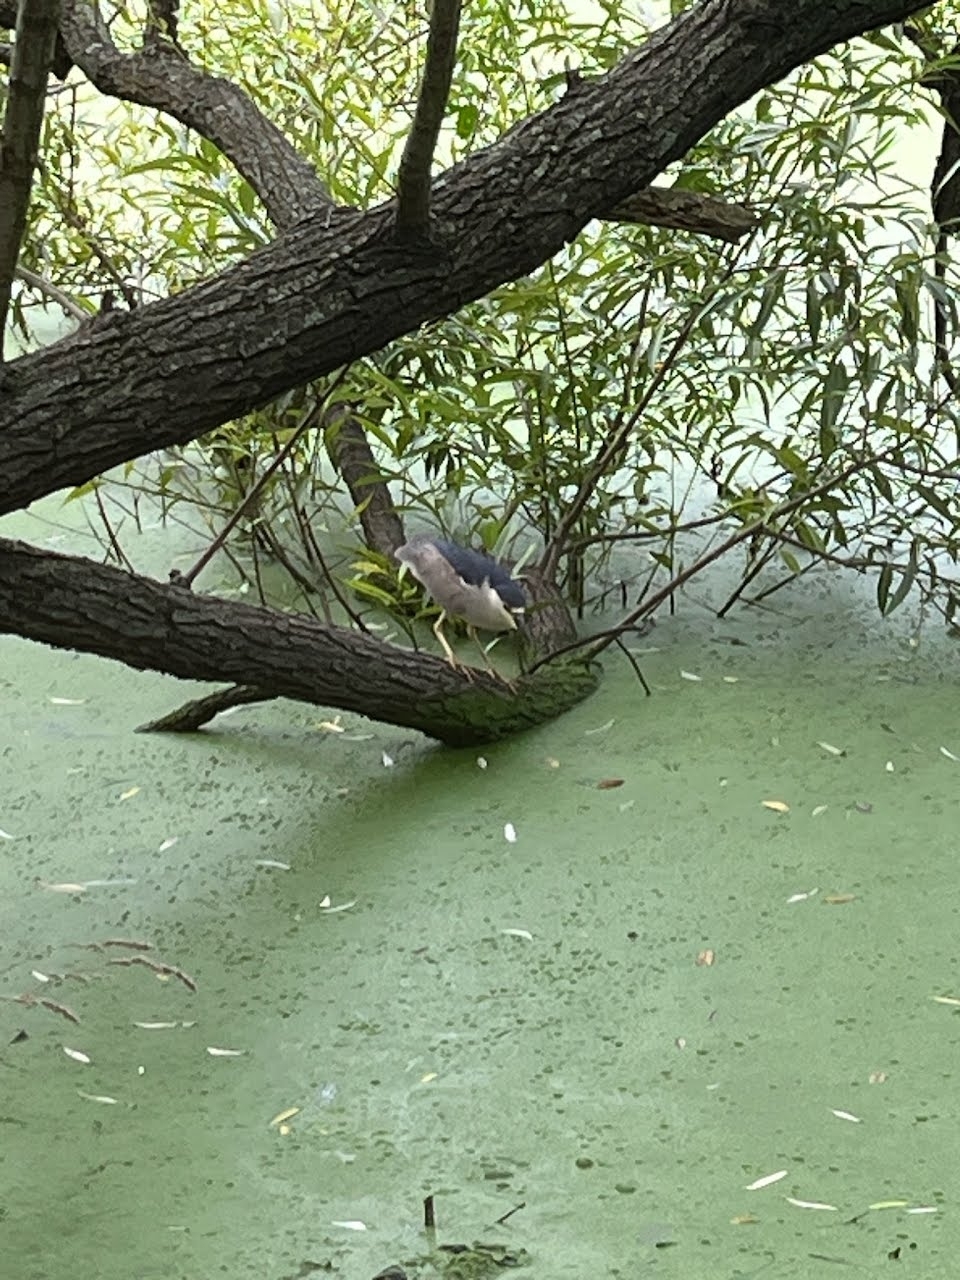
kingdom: Animalia
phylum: Chordata
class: Aves
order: Pelecaniformes
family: Ardeidae
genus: Nycticorax
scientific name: Nycticorax nycticorax
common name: Black-crowned night heron
